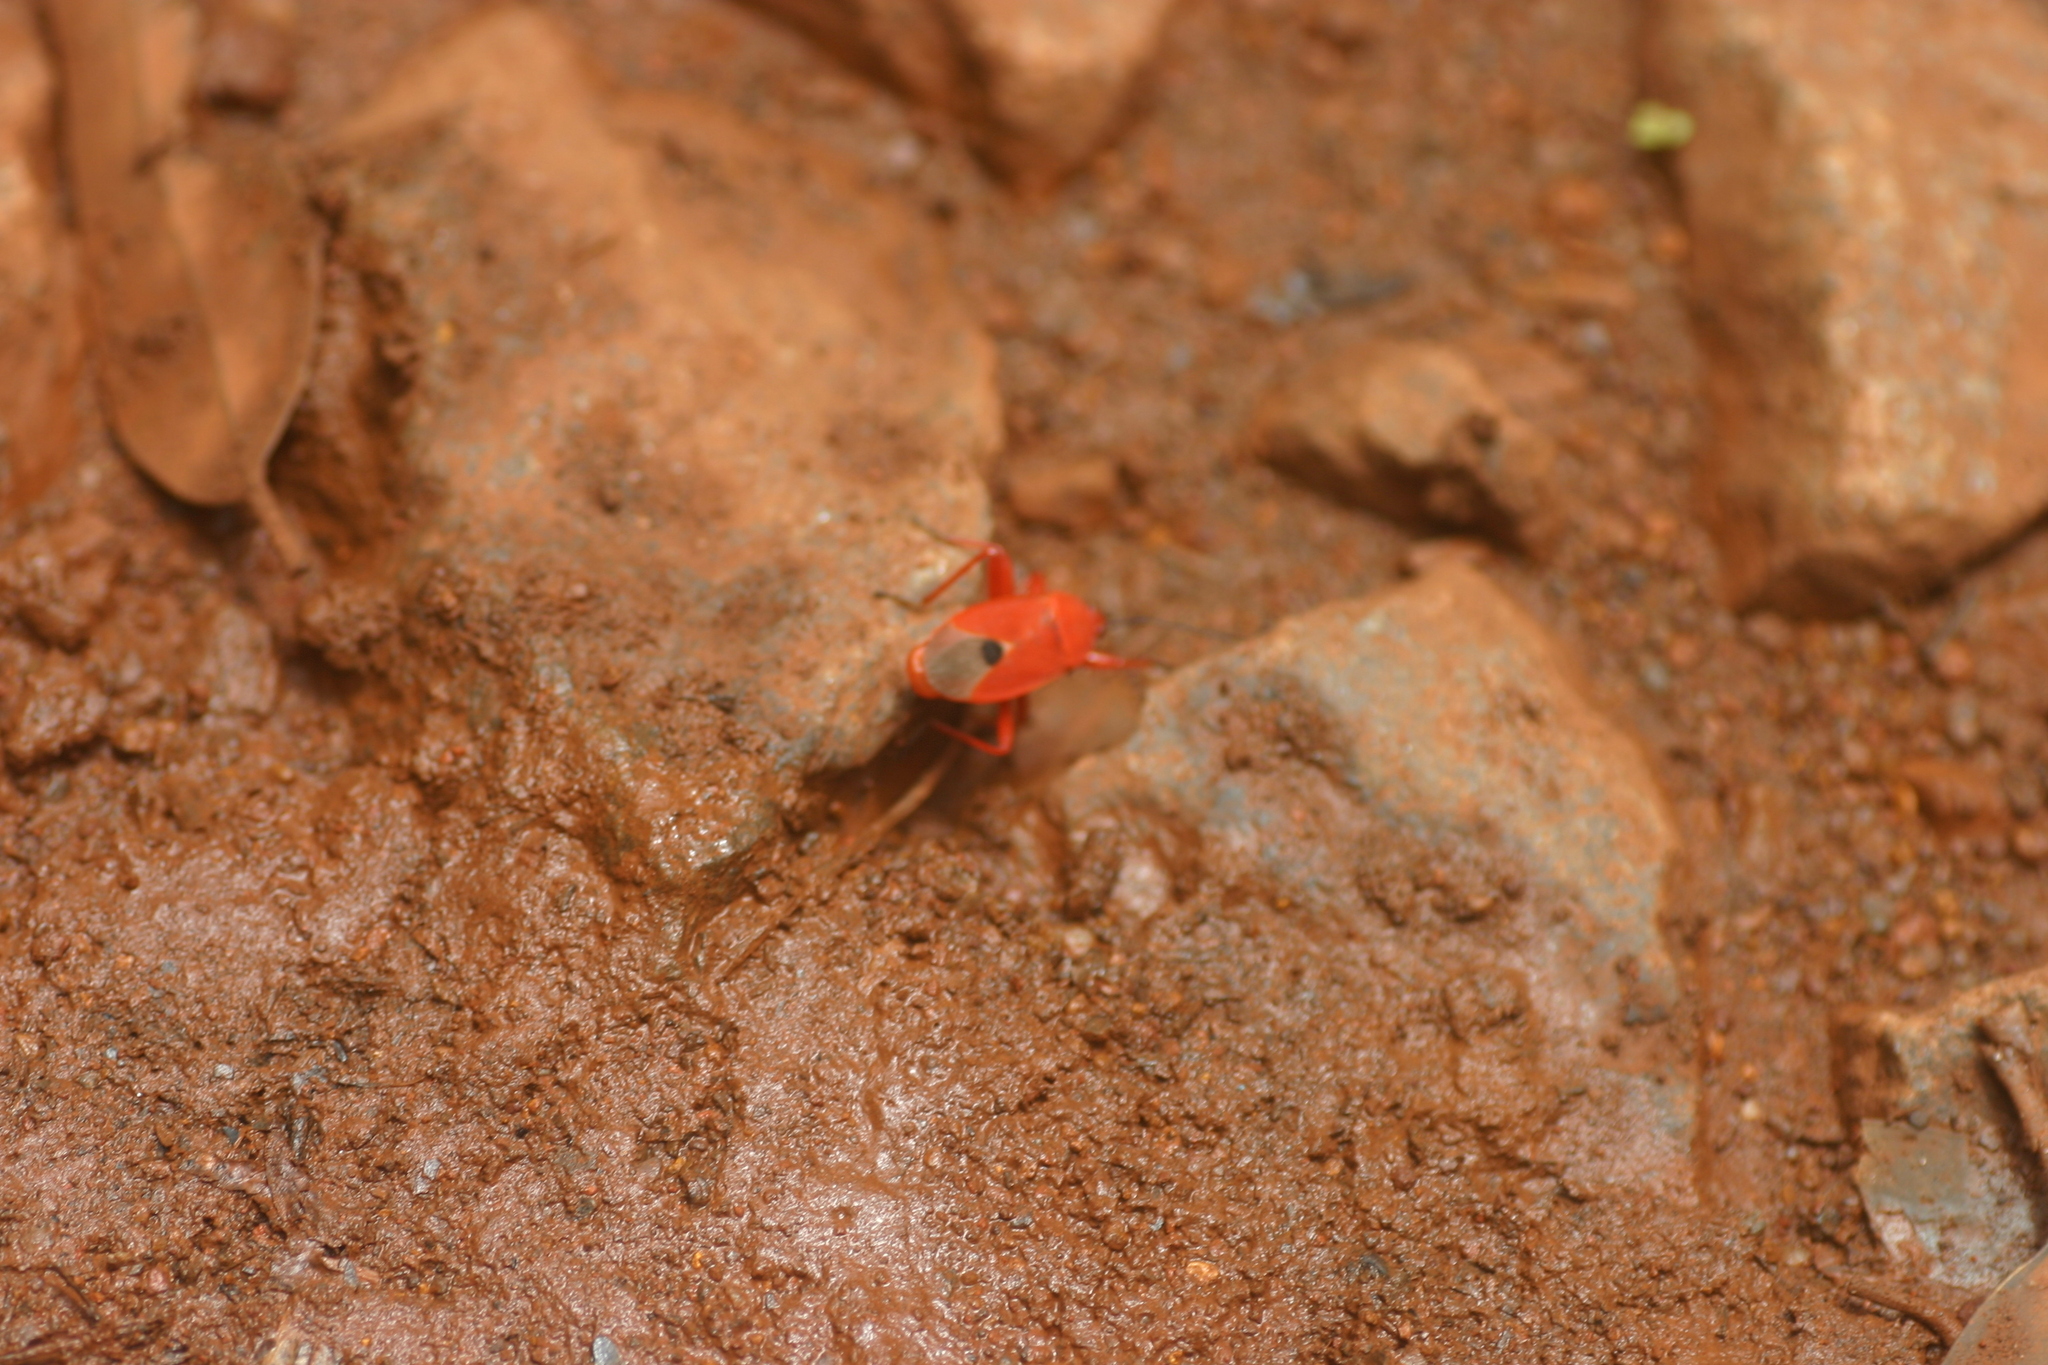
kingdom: Animalia
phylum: Arthropoda
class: Insecta
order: Hemiptera
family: Pyrrhocoridae
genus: Antilochus
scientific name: Antilochus
